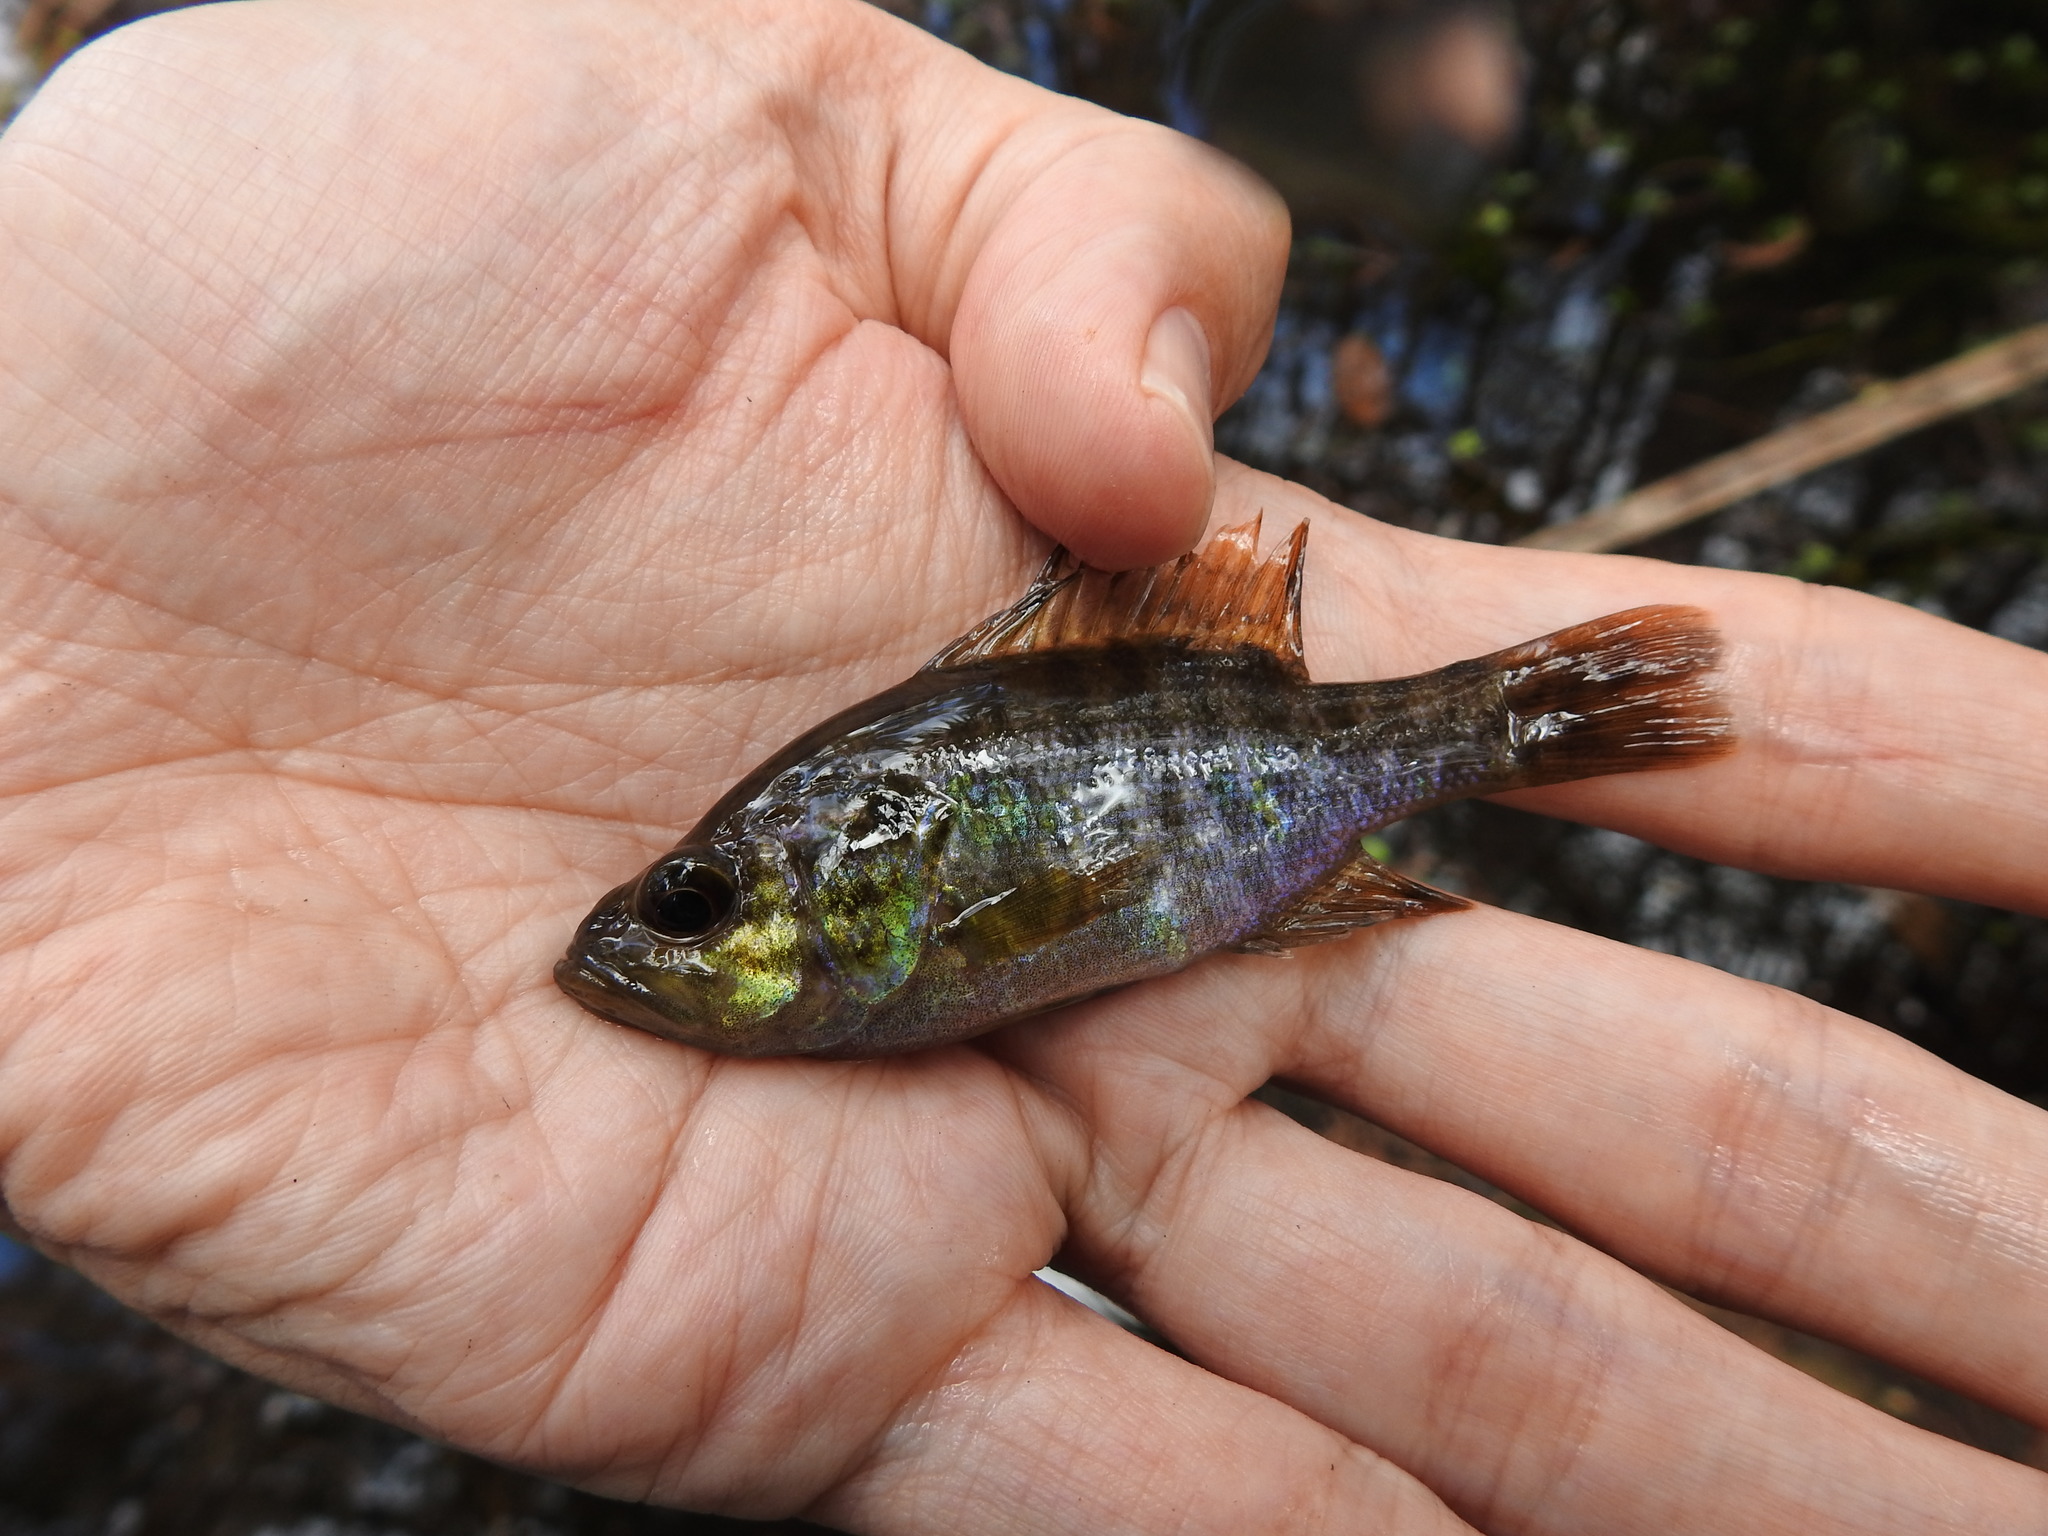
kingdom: Animalia
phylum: Chordata
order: Perciformes
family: Centrarchidae
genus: Lepomis
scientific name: Lepomis gulosus
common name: Warmouth
